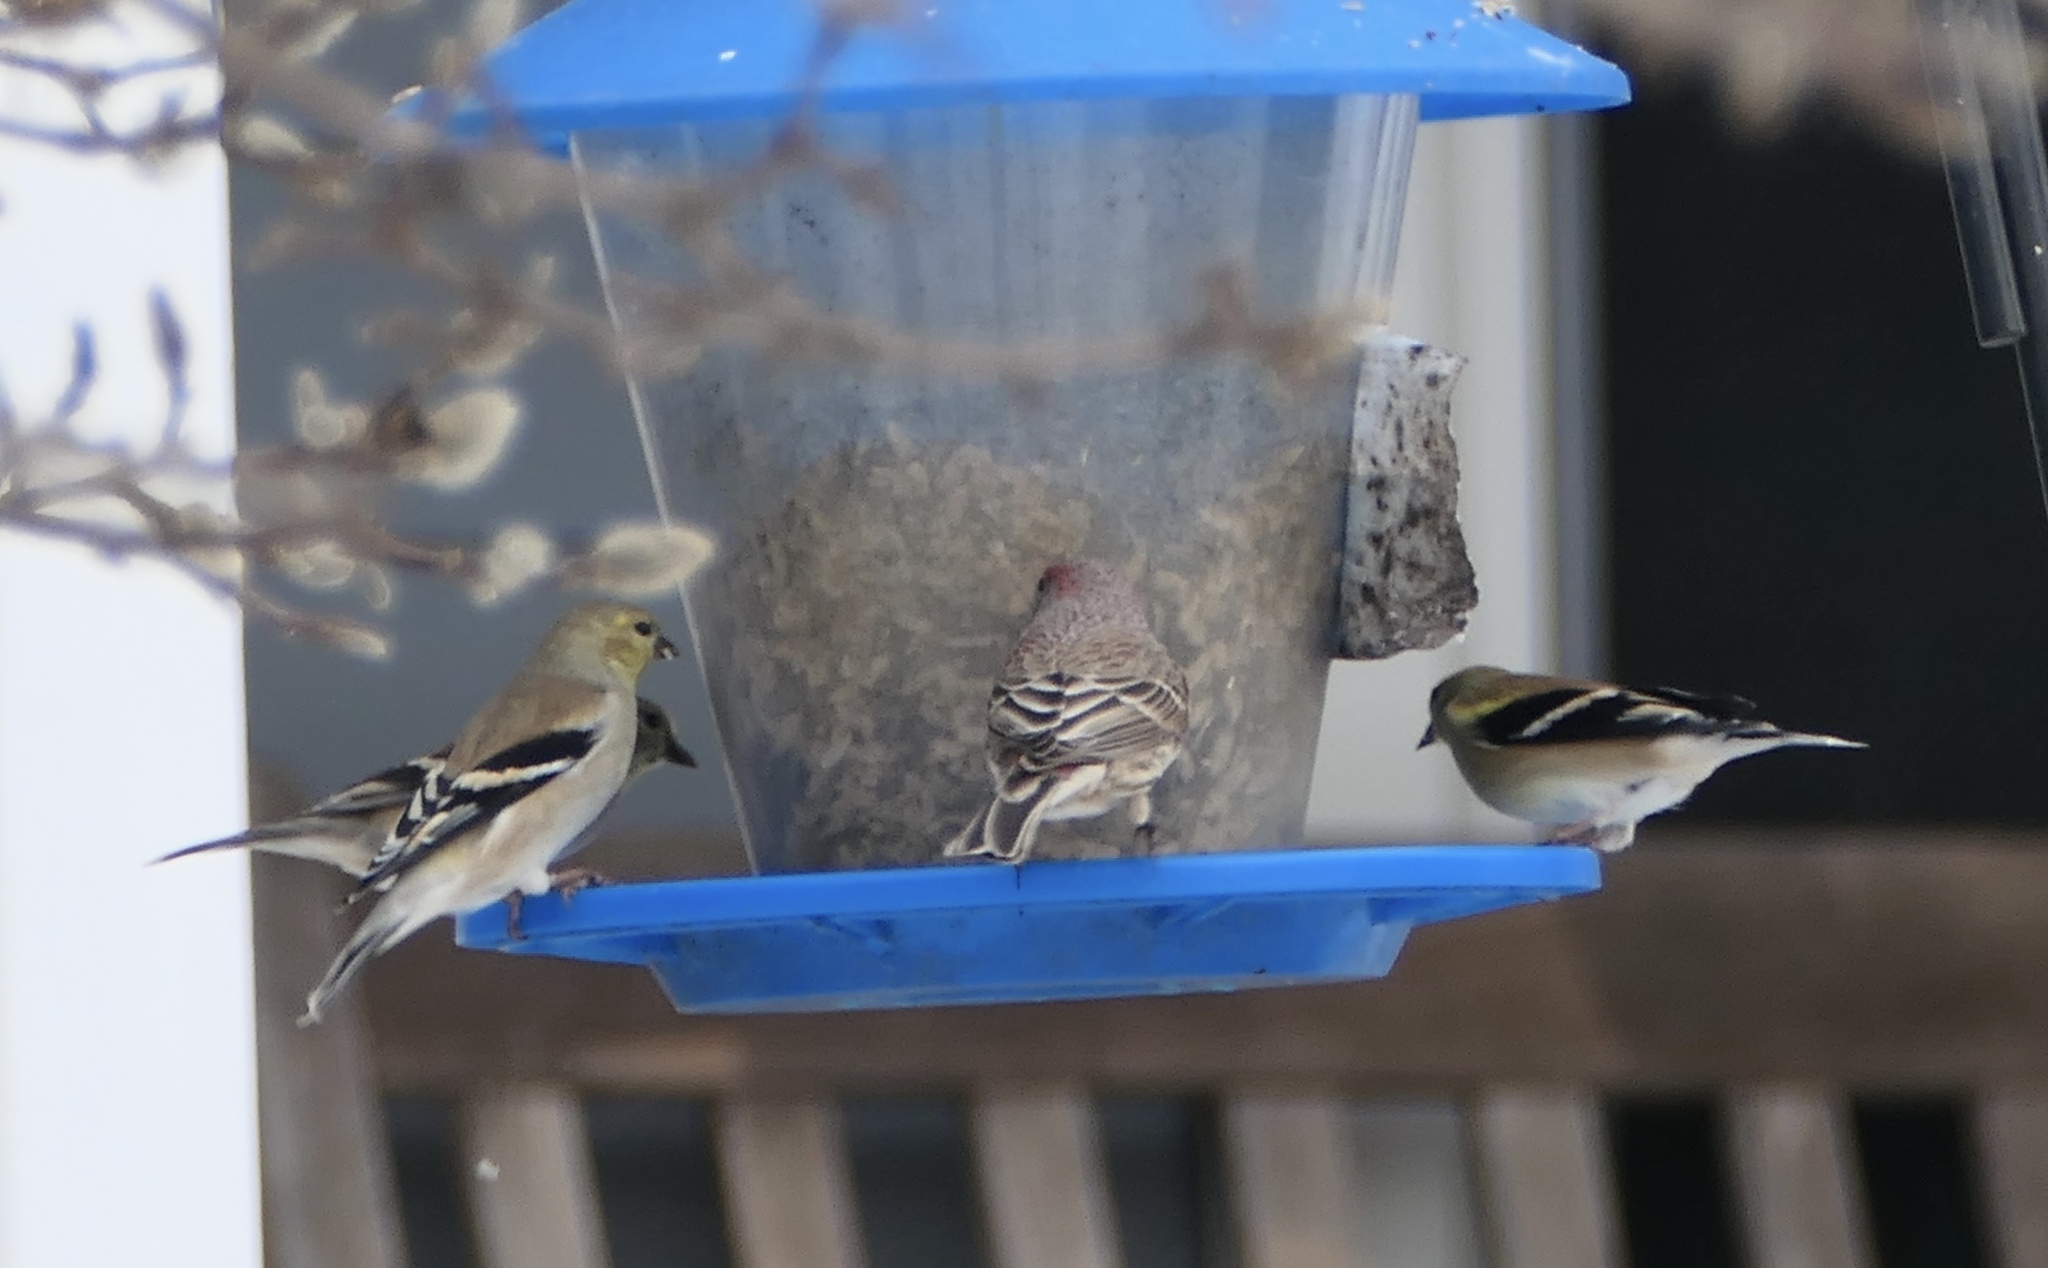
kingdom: Animalia
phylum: Chordata
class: Aves
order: Passeriformes
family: Fringillidae
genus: Spinus
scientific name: Spinus tristis
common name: American goldfinch
